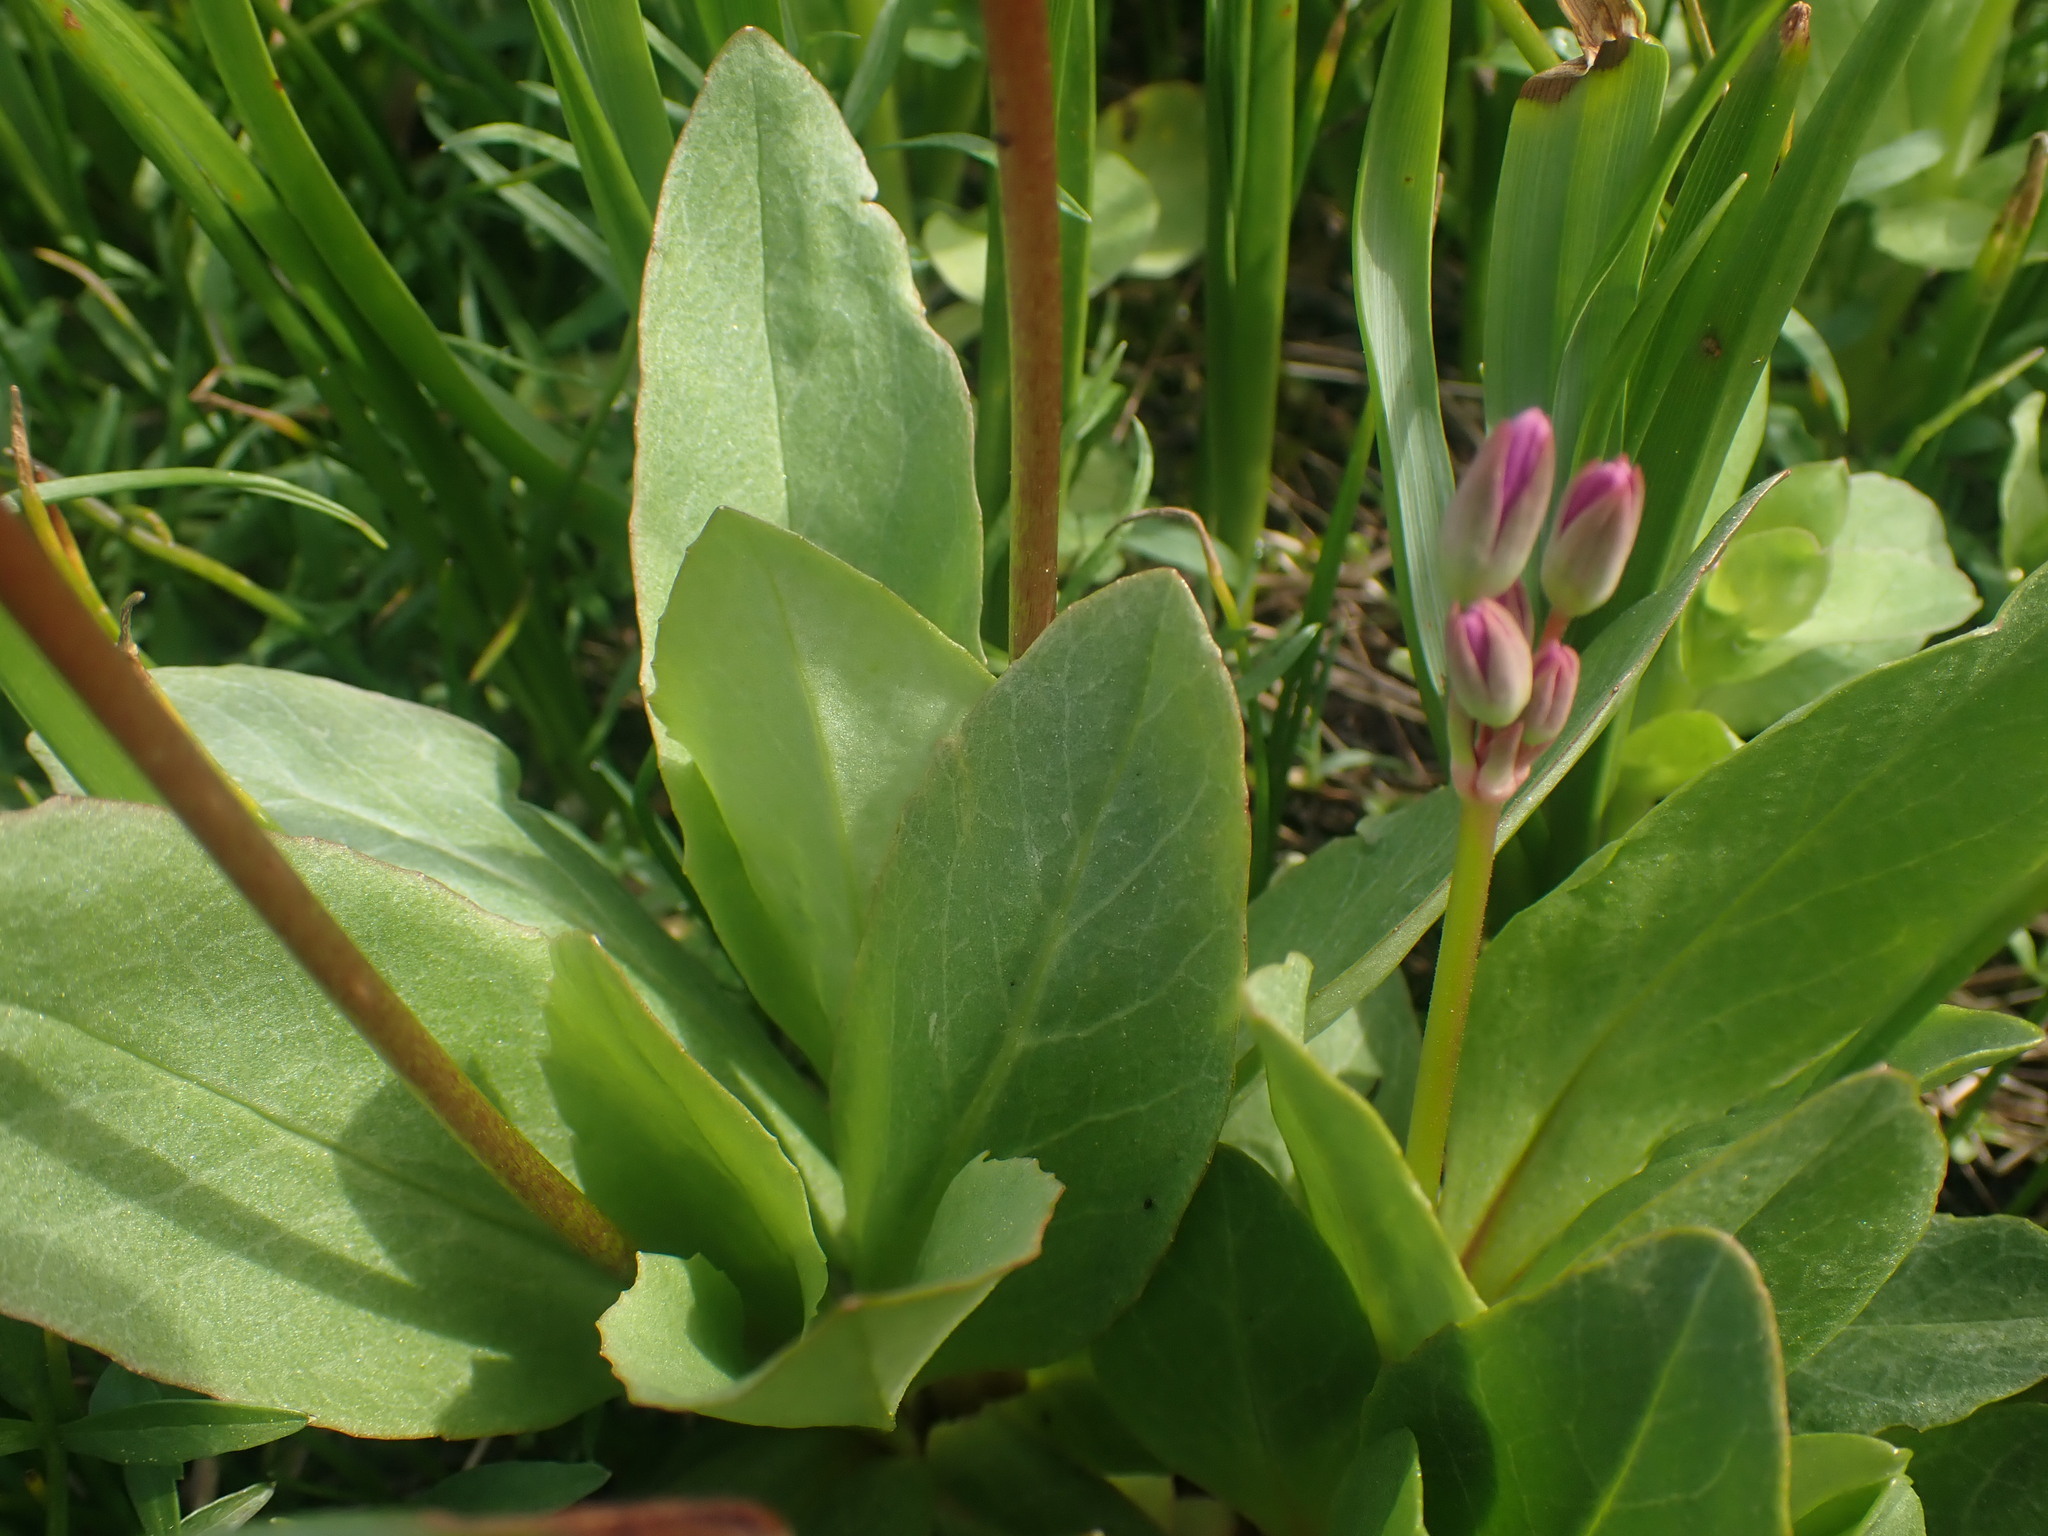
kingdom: Plantae
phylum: Tracheophyta
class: Magnoliopsida
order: Ericales
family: Primulaceae
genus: Dodecatheon
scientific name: Dodecatheon pulchellum
